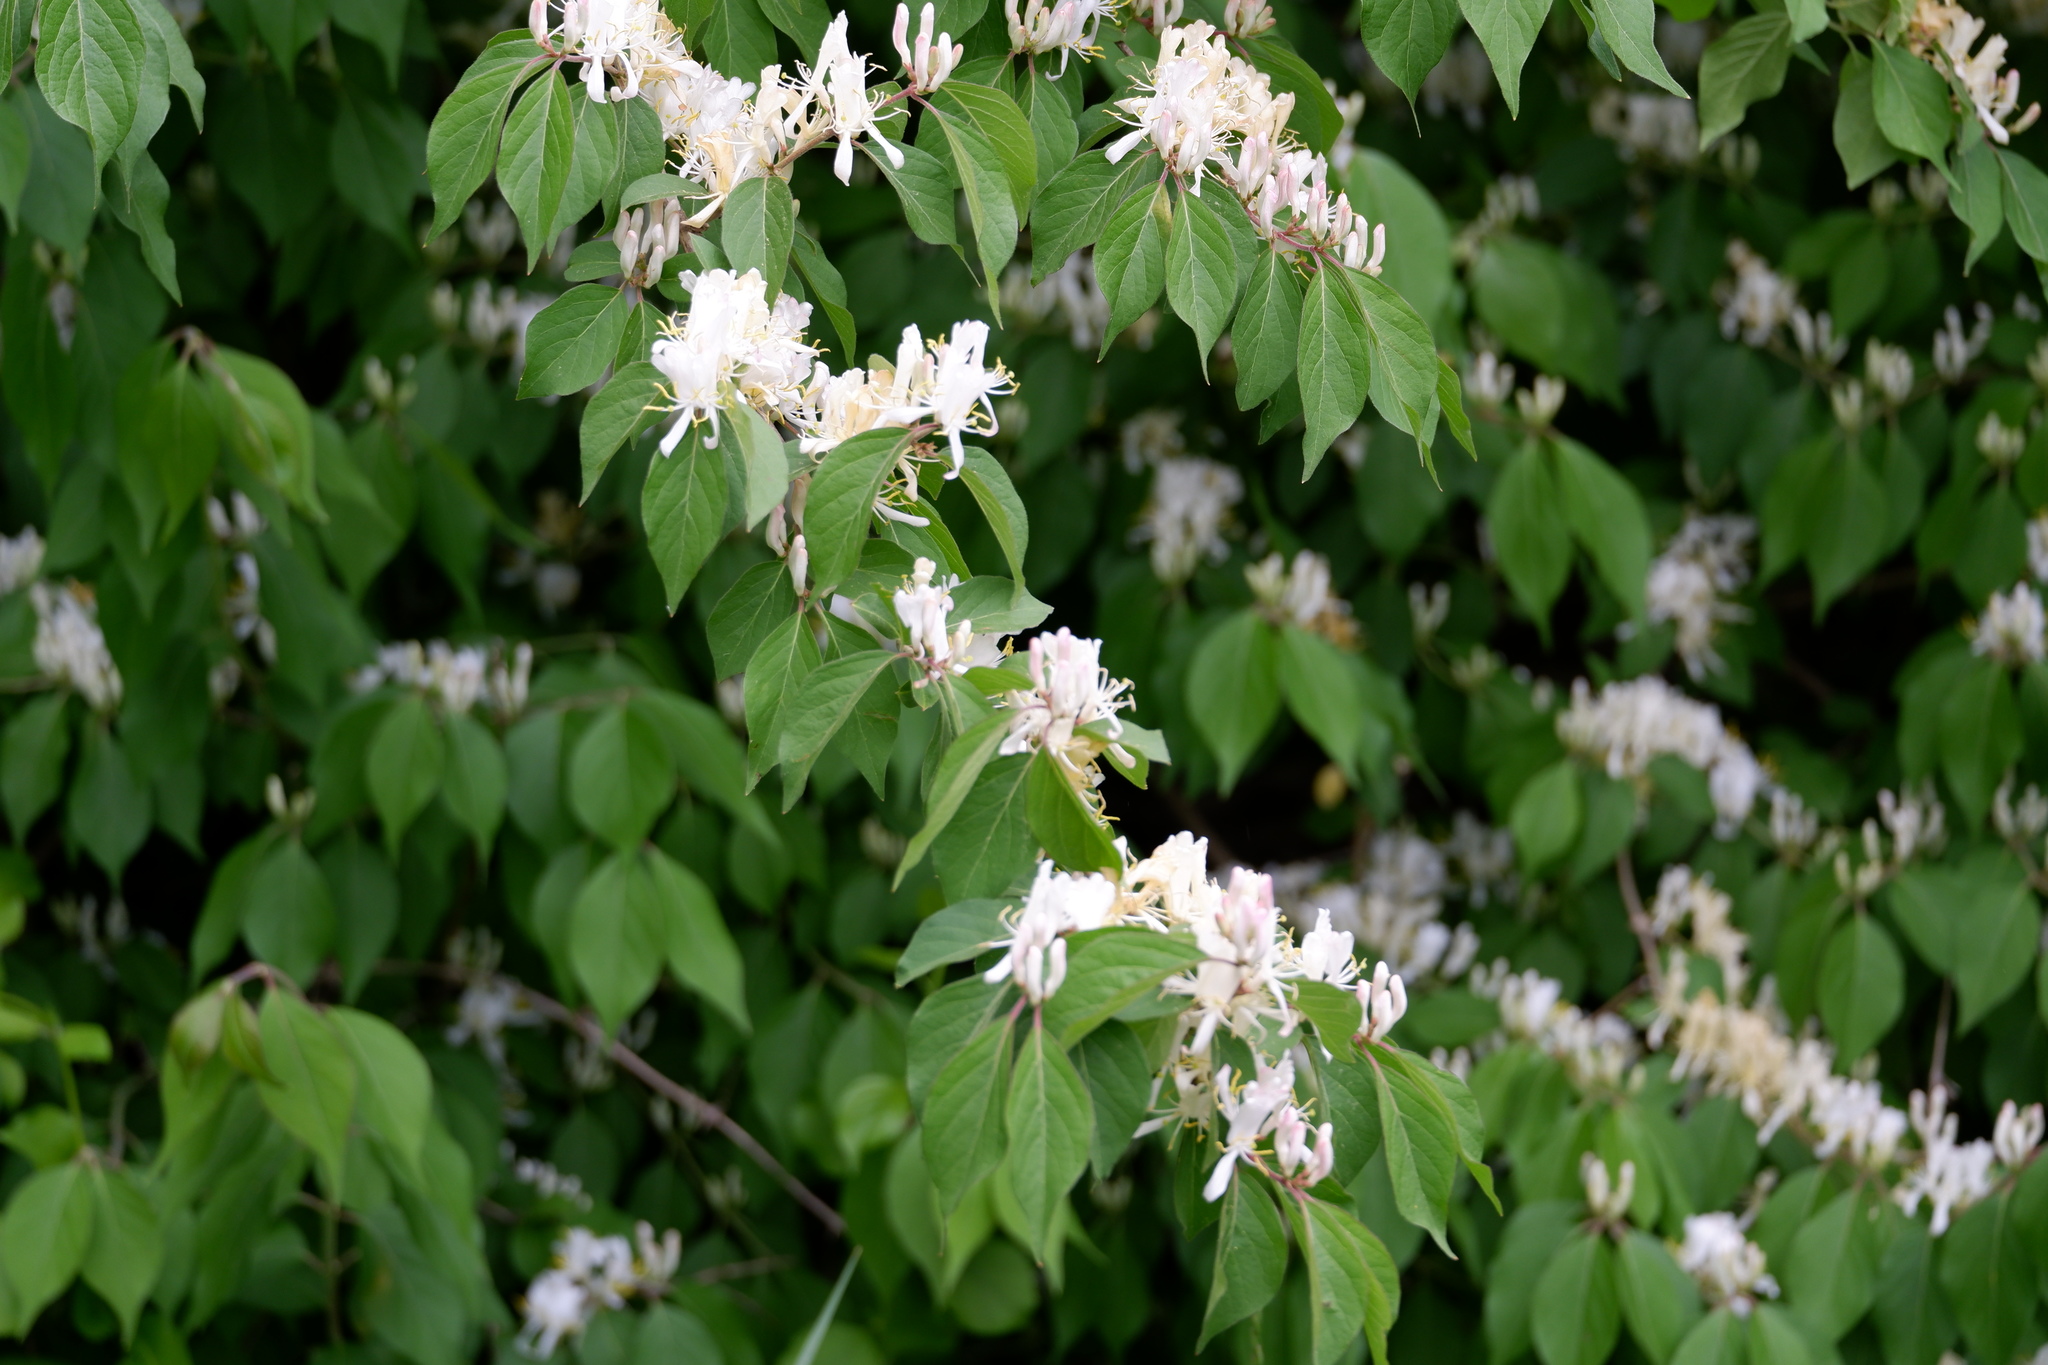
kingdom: Plantae
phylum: Tracheophyta
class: Magnoliopsida
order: Dipsacales
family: Caprifoliaceae
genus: Lonicera
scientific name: Lonicera maackii
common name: Amur honeysuckle
